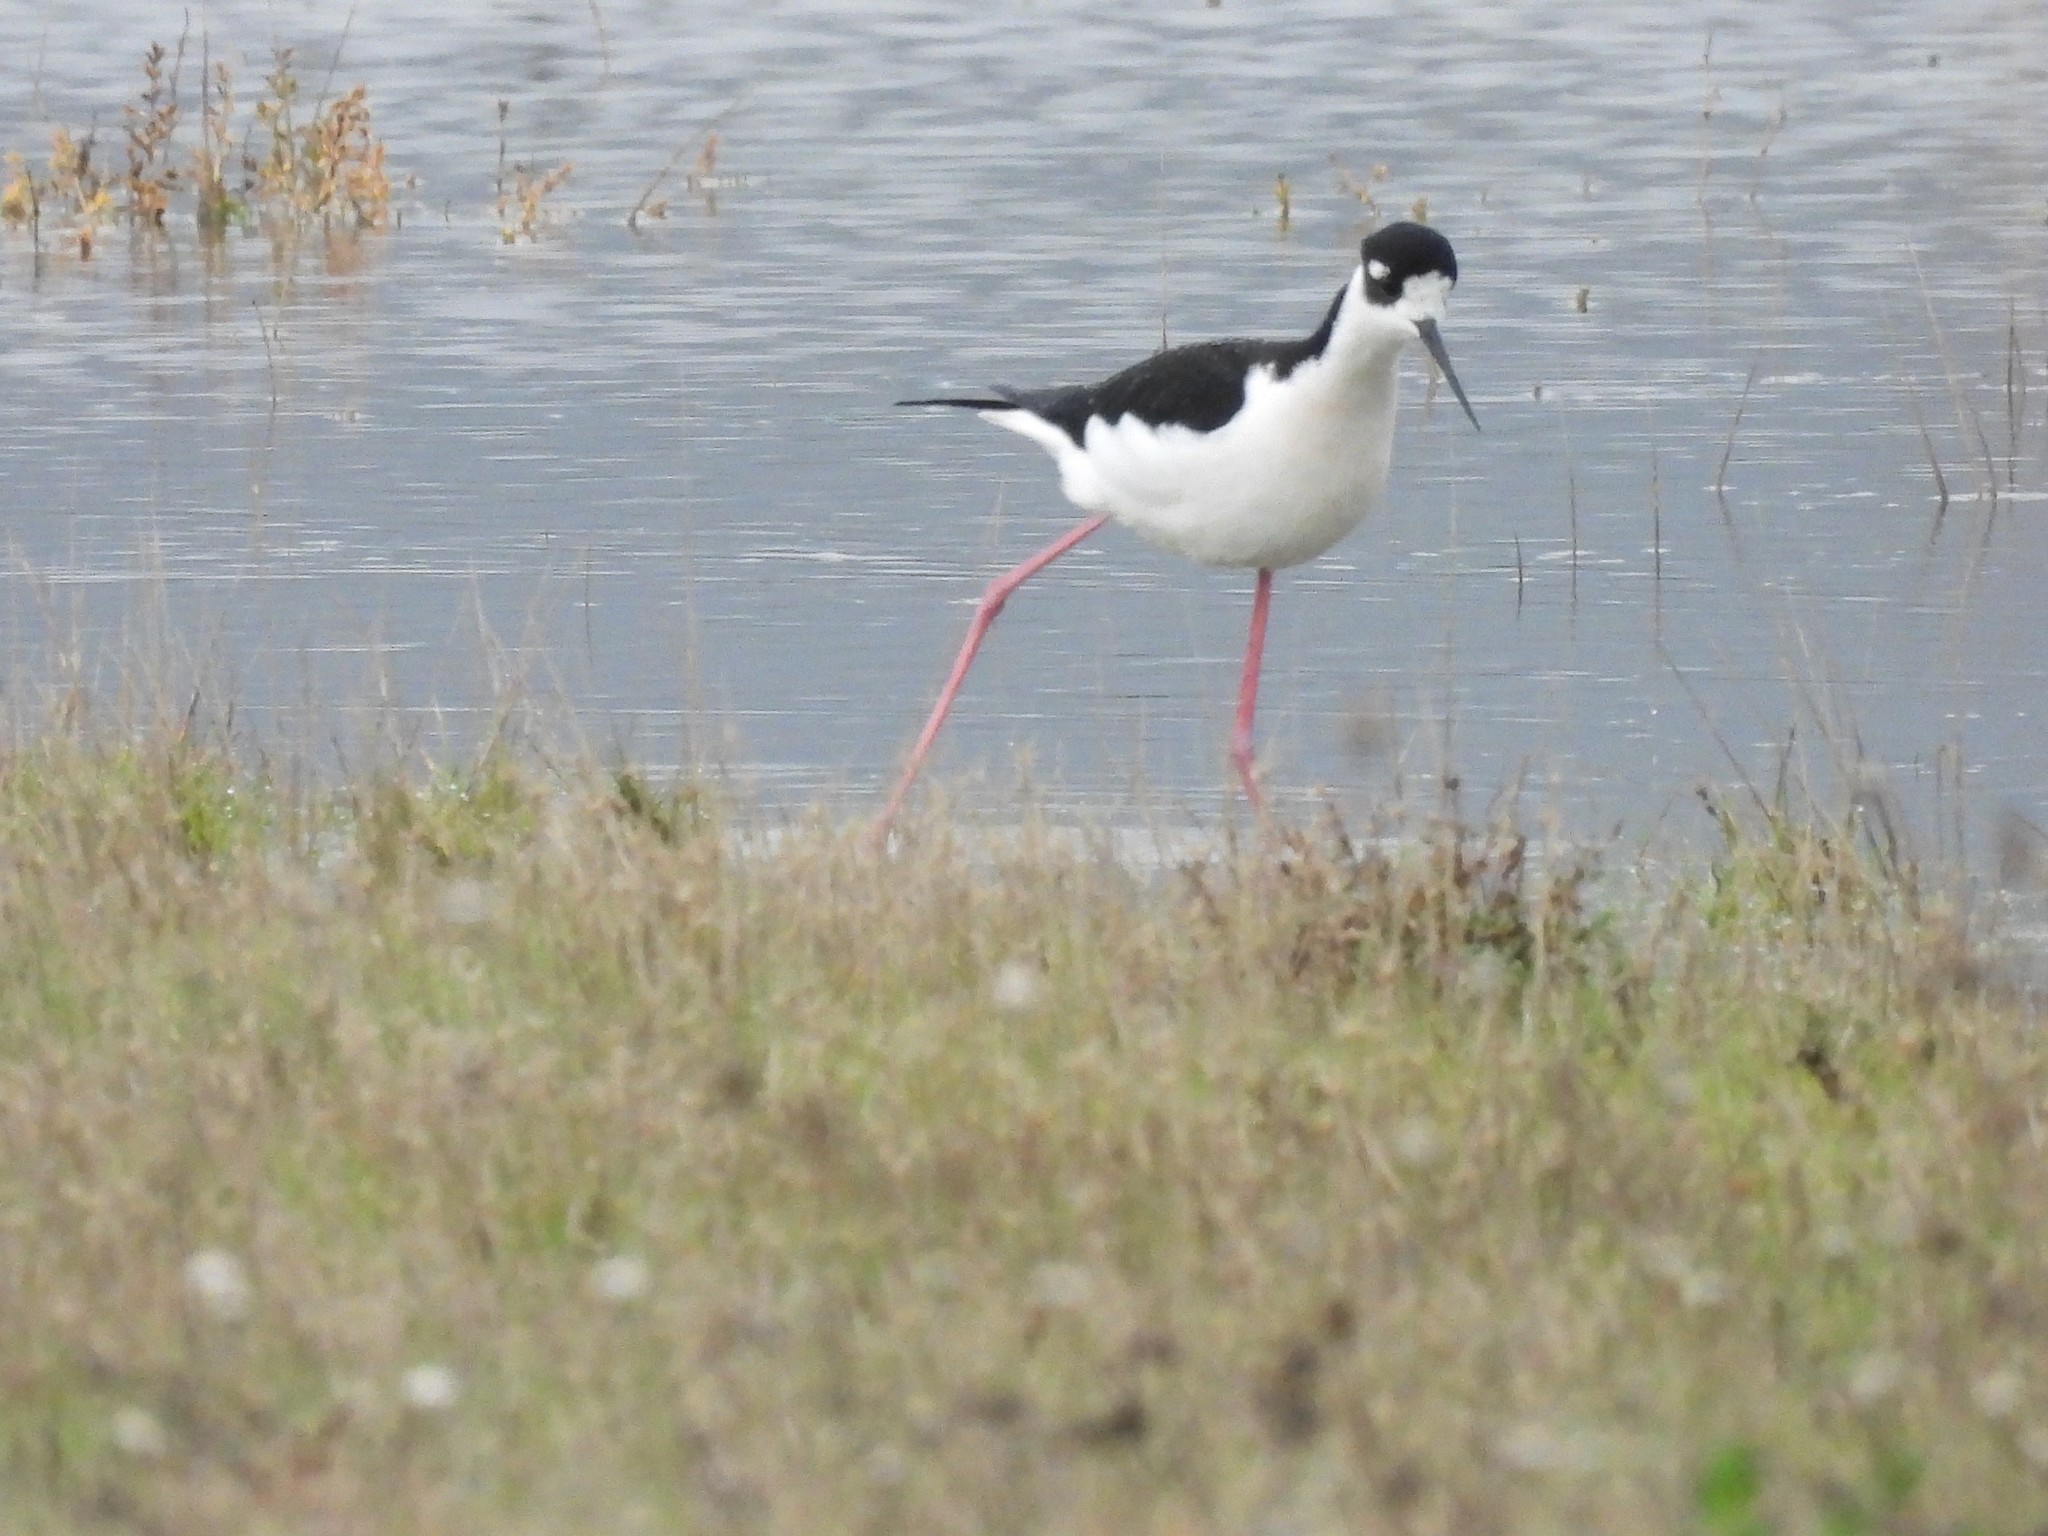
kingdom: Animalia
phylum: Chordata
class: Aves
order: Charadriiformes
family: Recurvirostridae
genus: Himantopus
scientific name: Himantopus mexicanus
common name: Black-necked stilt
